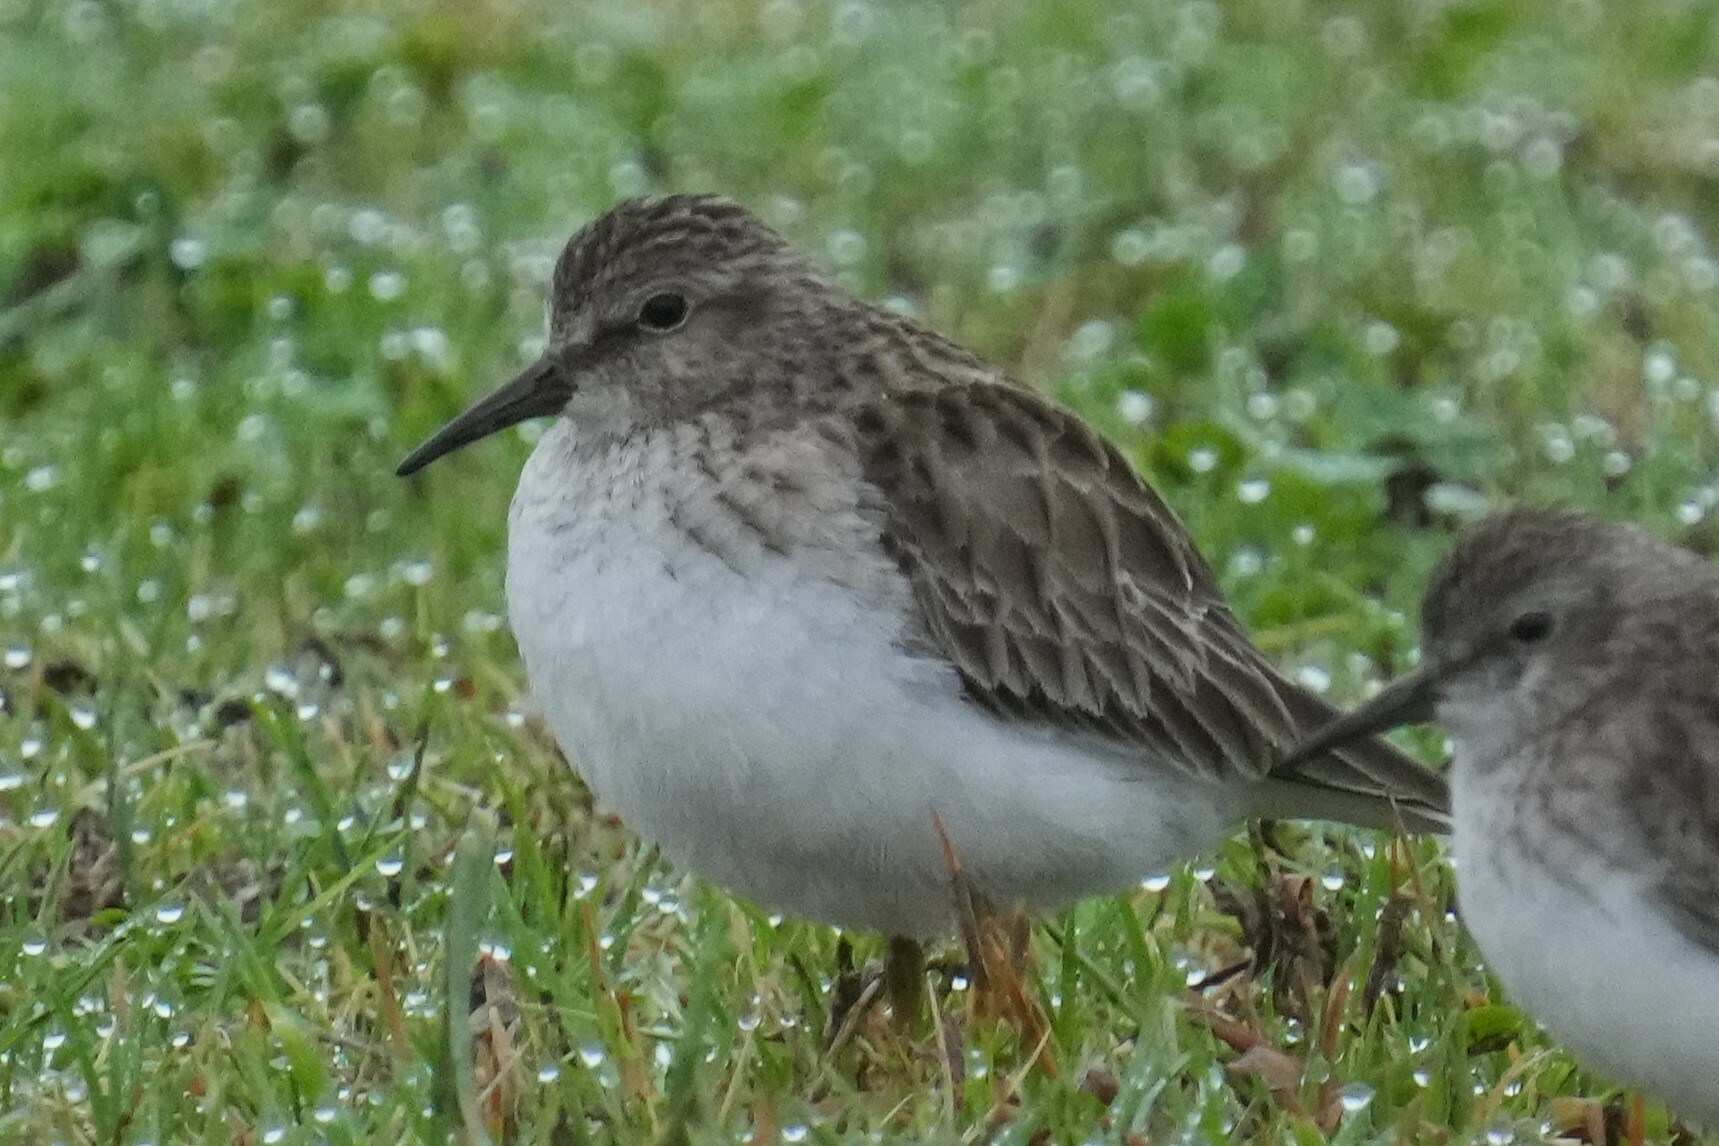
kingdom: Animalia
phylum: Chordata
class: Aves
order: Charadriiformes
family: Scolopacidae
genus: Calidris
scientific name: Calidris minutilla
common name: Least sandpiper
